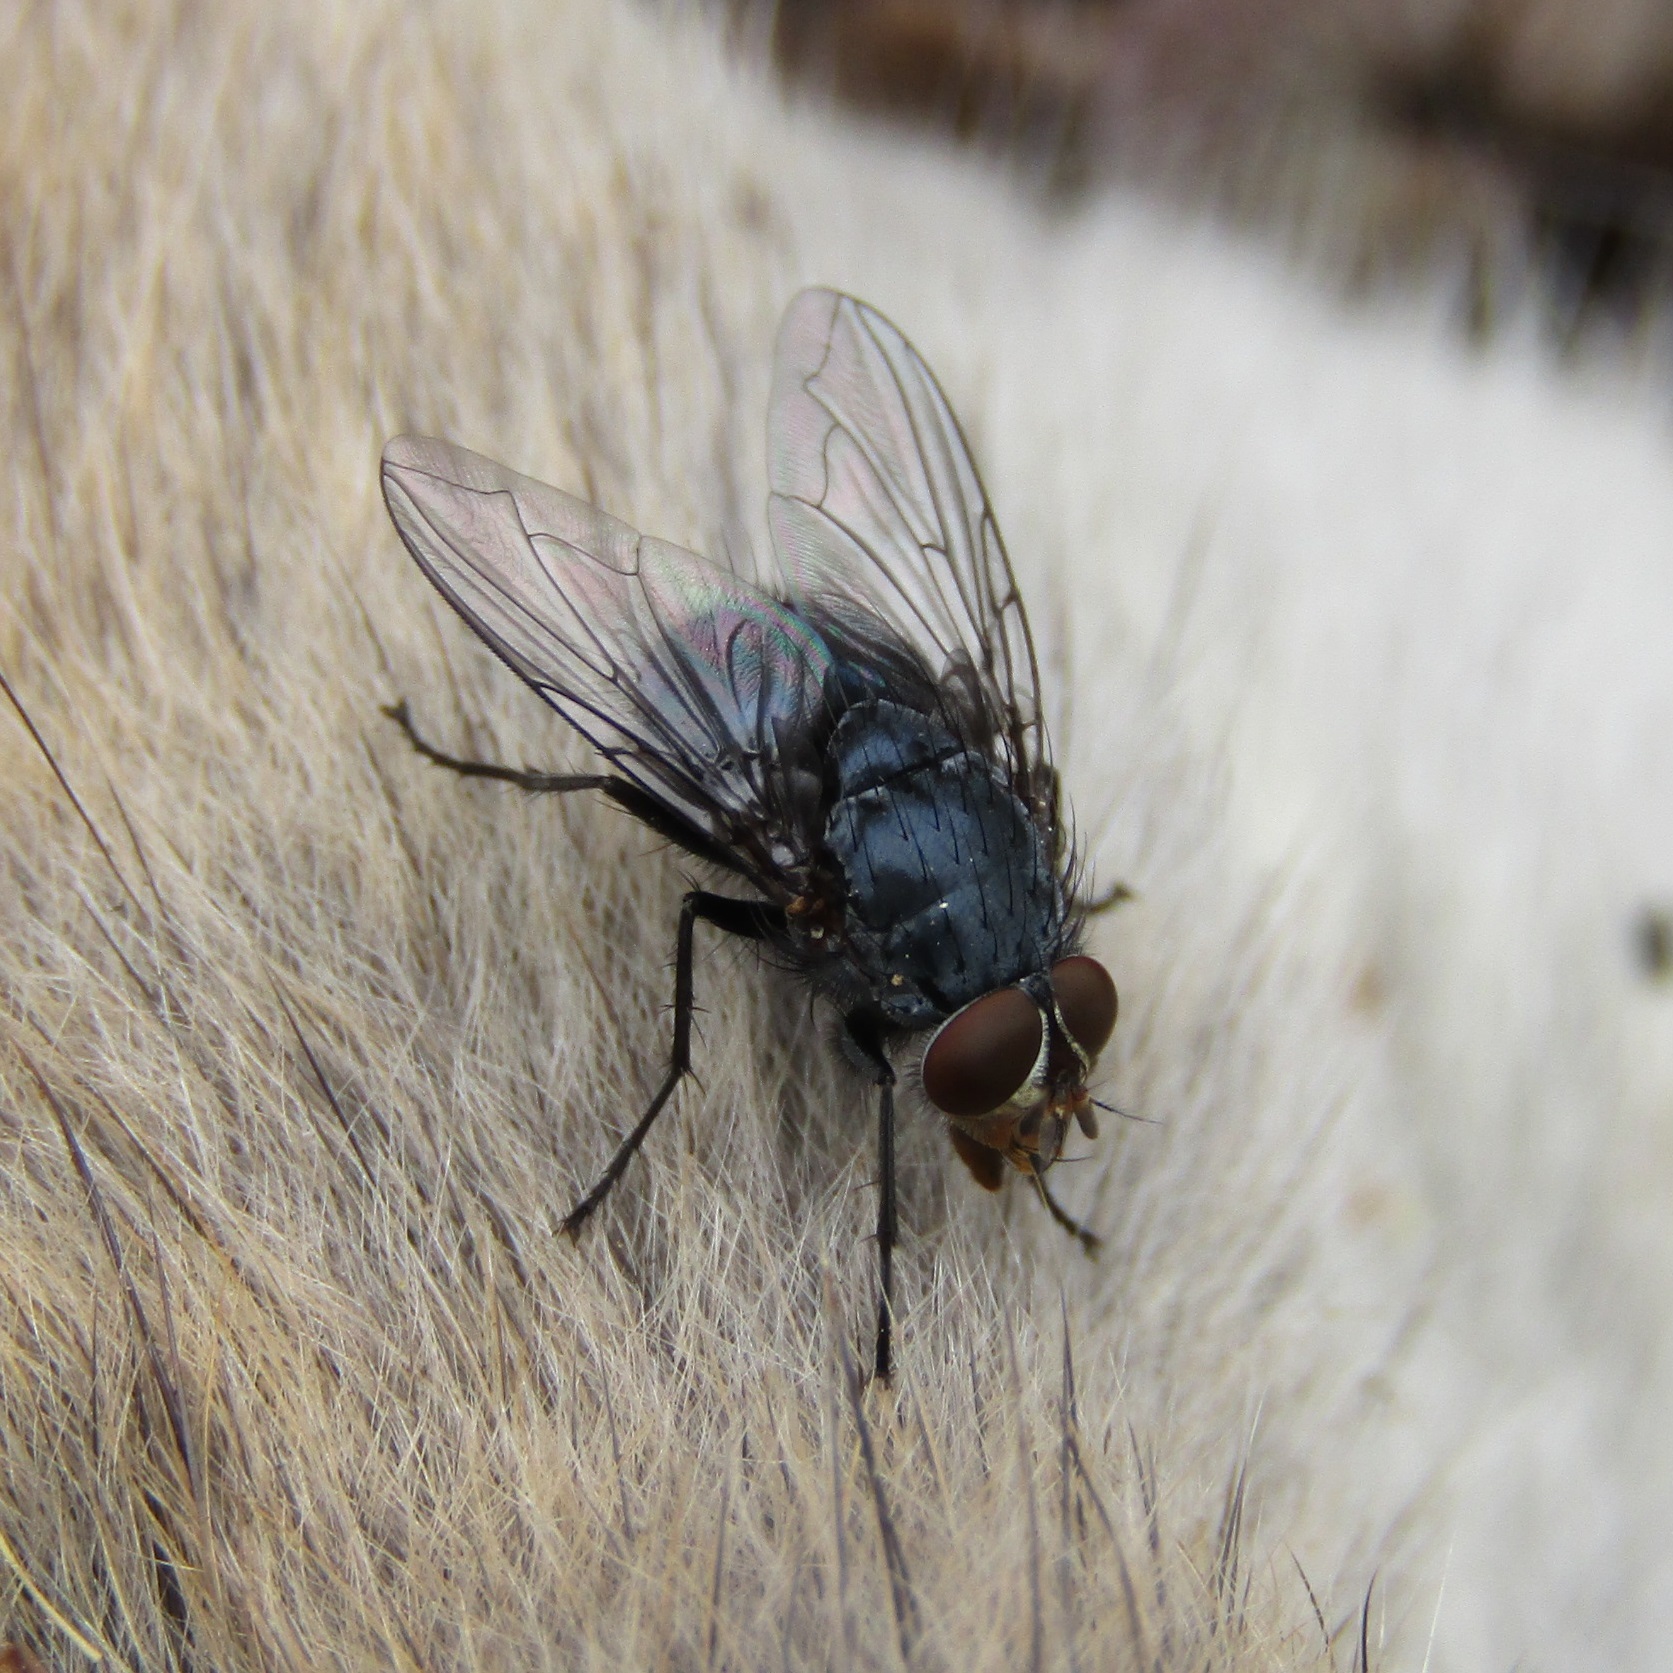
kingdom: Animalia
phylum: Arthropoda
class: Insecta
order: Diptera
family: Calliphoridae
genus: Calliphora
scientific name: Calliphora vicina
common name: Common blow flie
